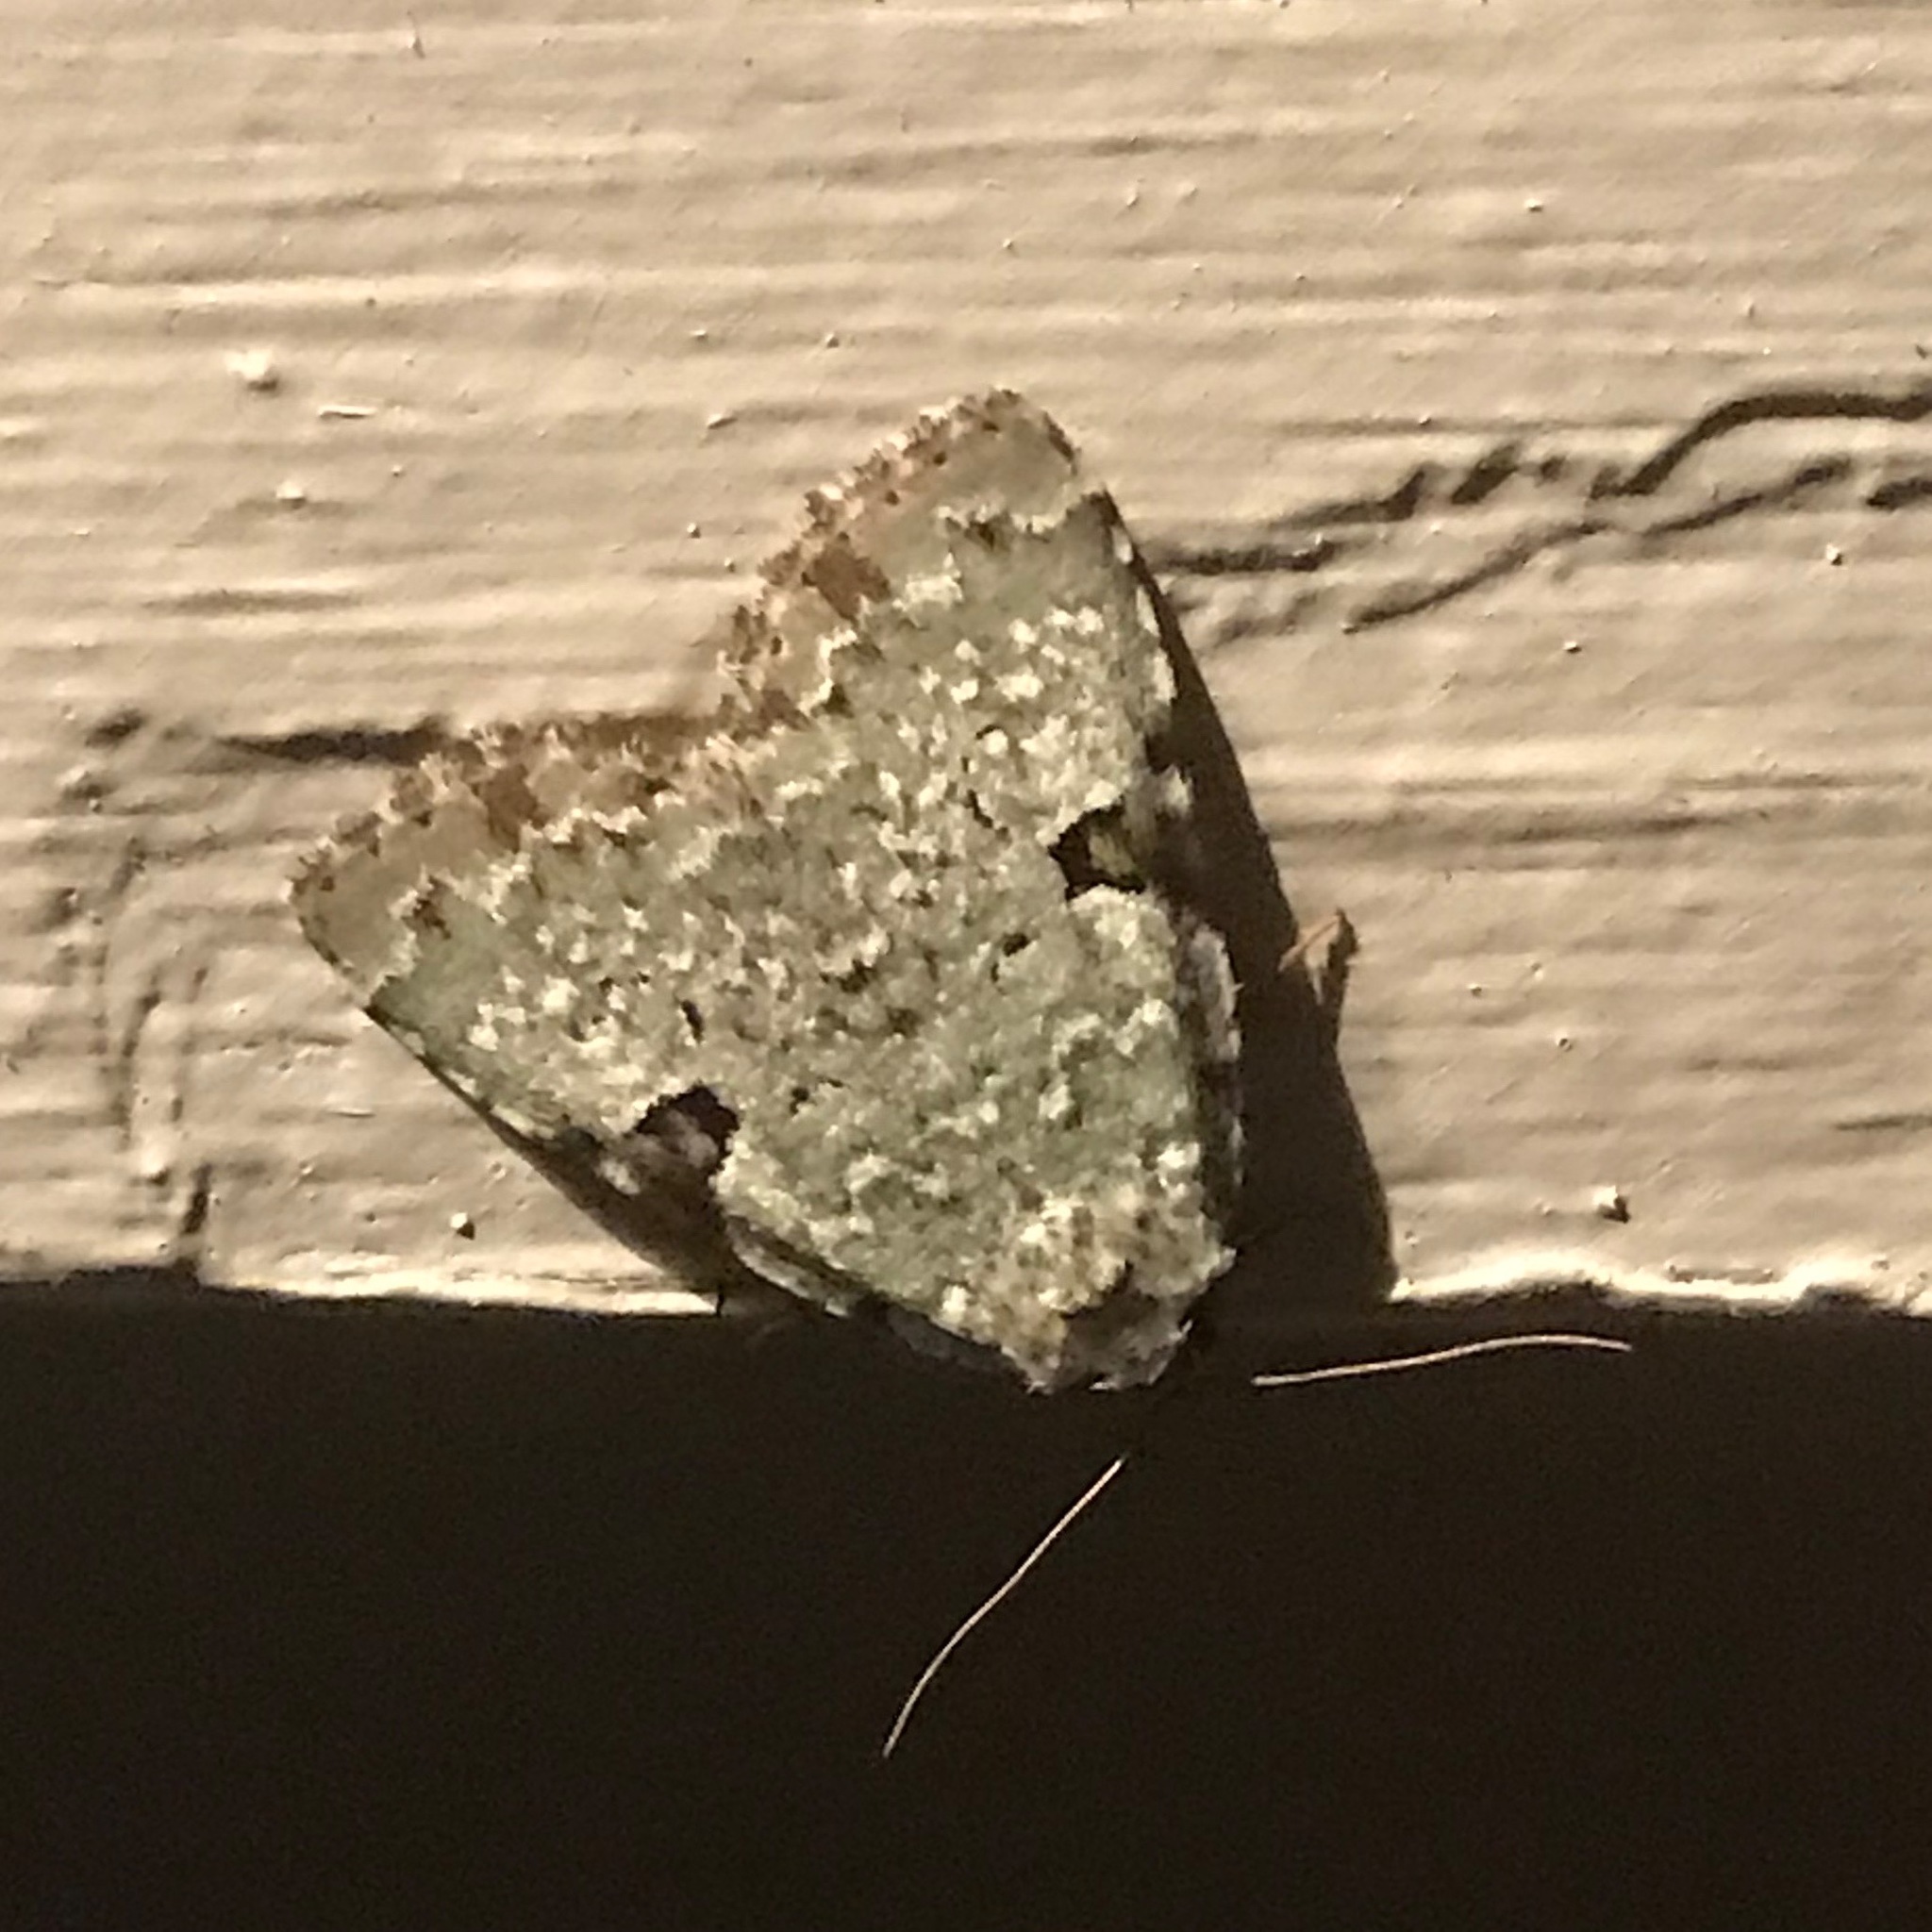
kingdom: Animalia
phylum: Arthropoda
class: Insecta
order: Lepidoptera
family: Noctuidae
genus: Leuconycta
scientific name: Leuconycta diphteroides
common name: Green leuconycta moth
